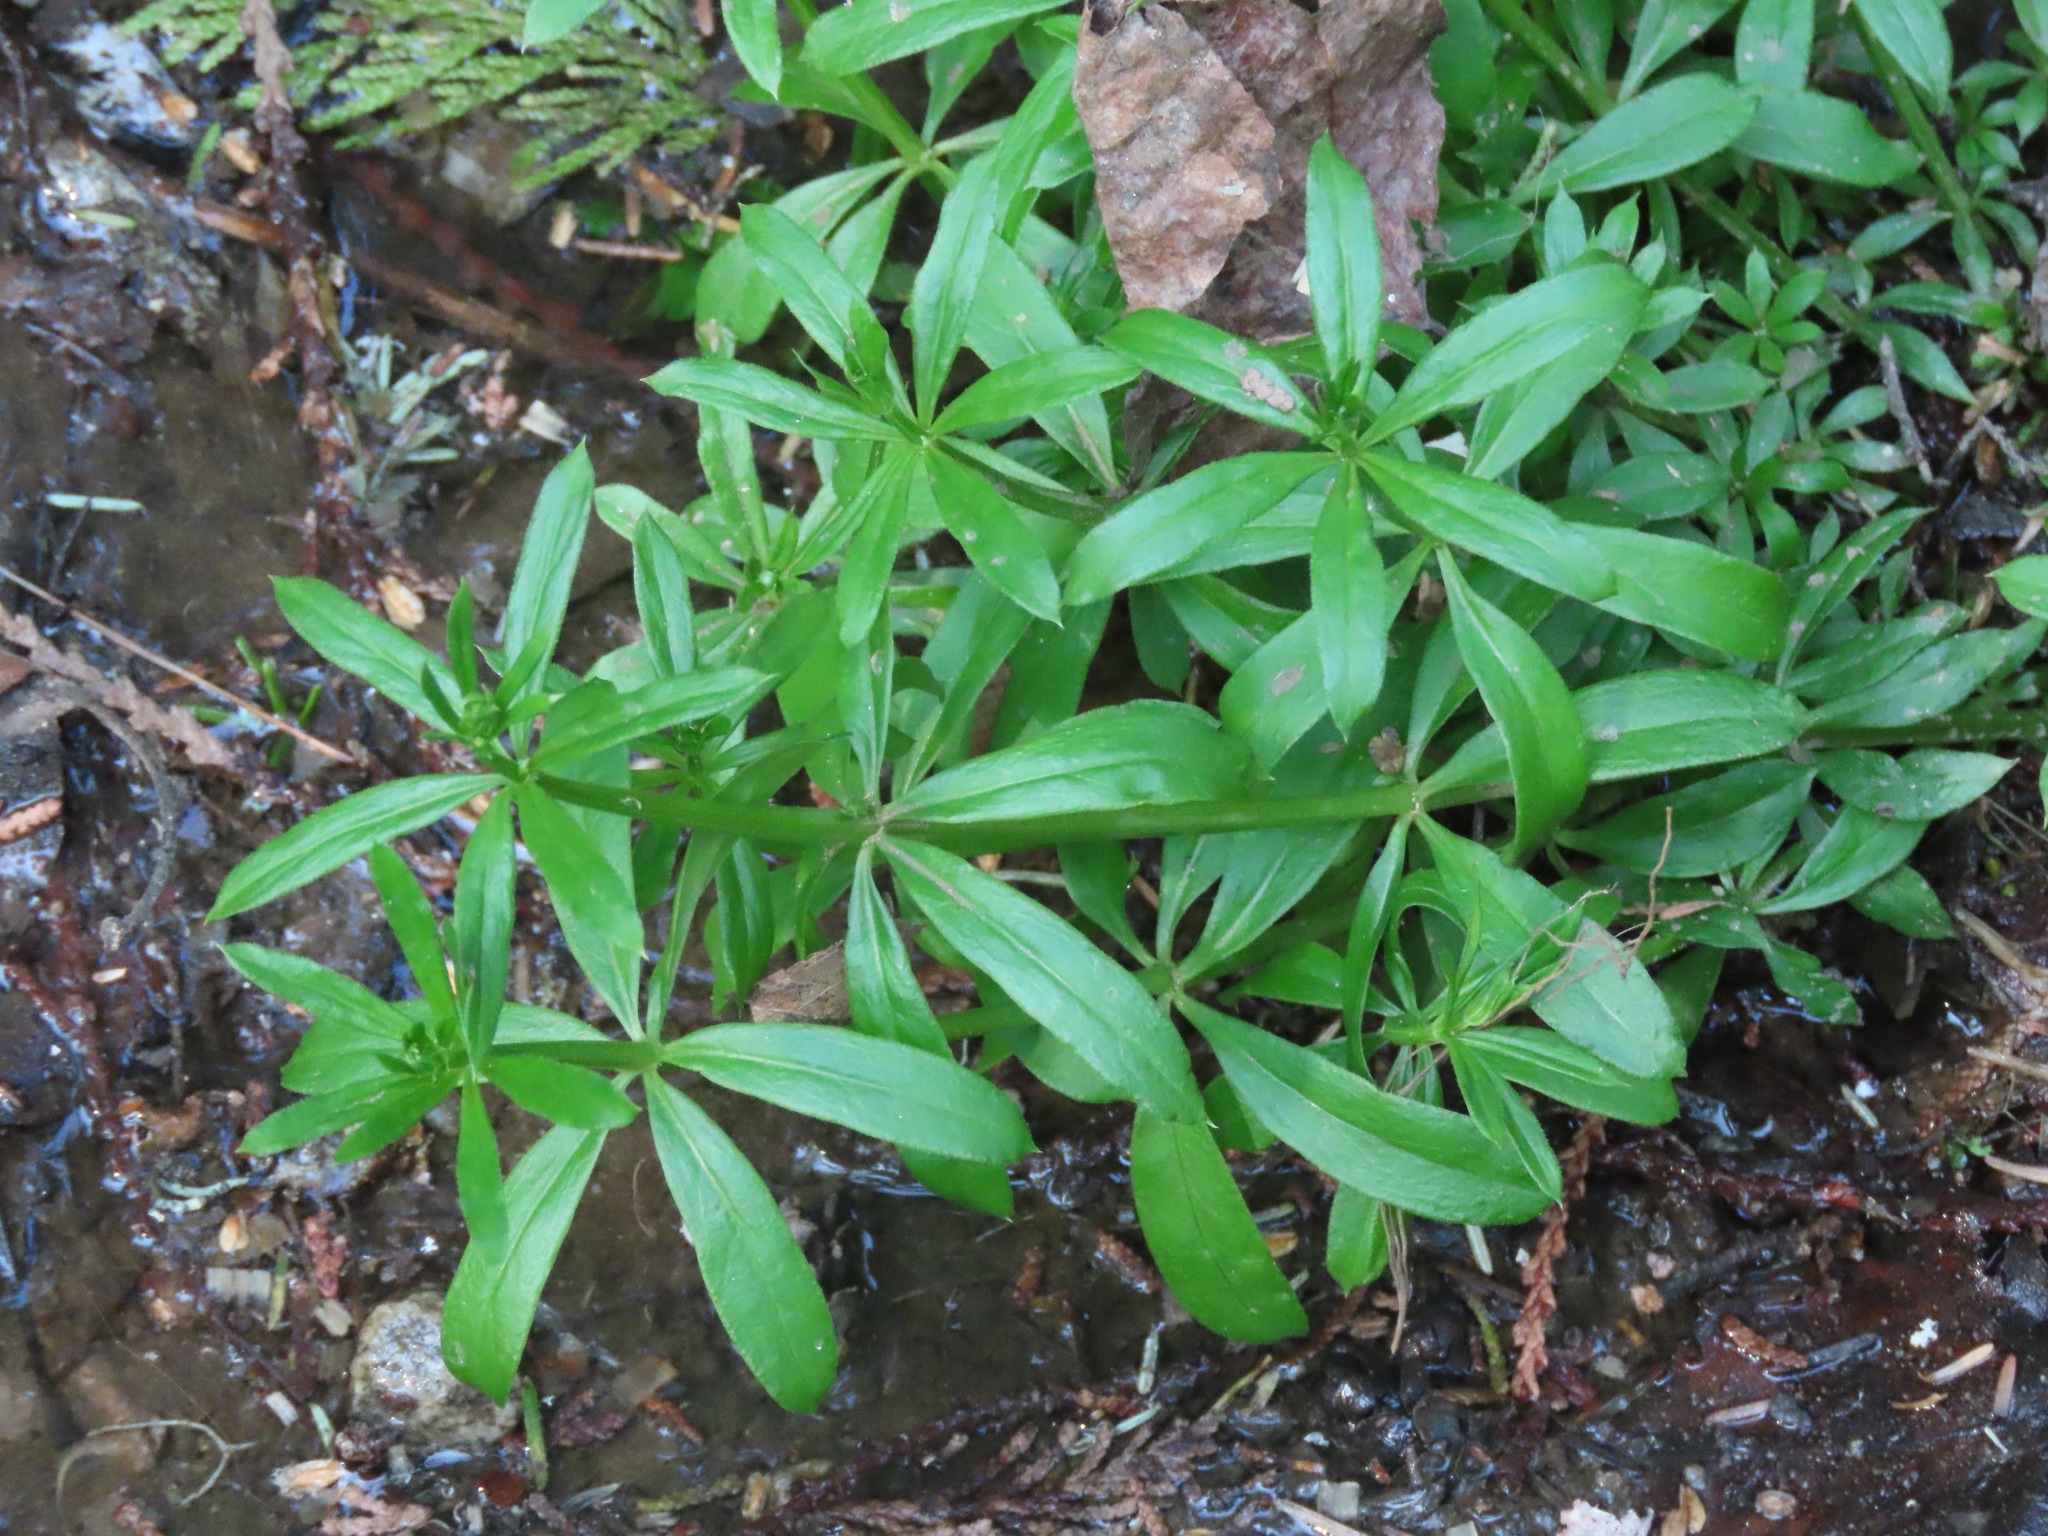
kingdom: Plantae
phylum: Tracheophyta
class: Magnoliopsida
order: Gentianales
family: Rubiaceae
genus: Galium
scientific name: Galium triflorum
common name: Fragrant bedstraw
